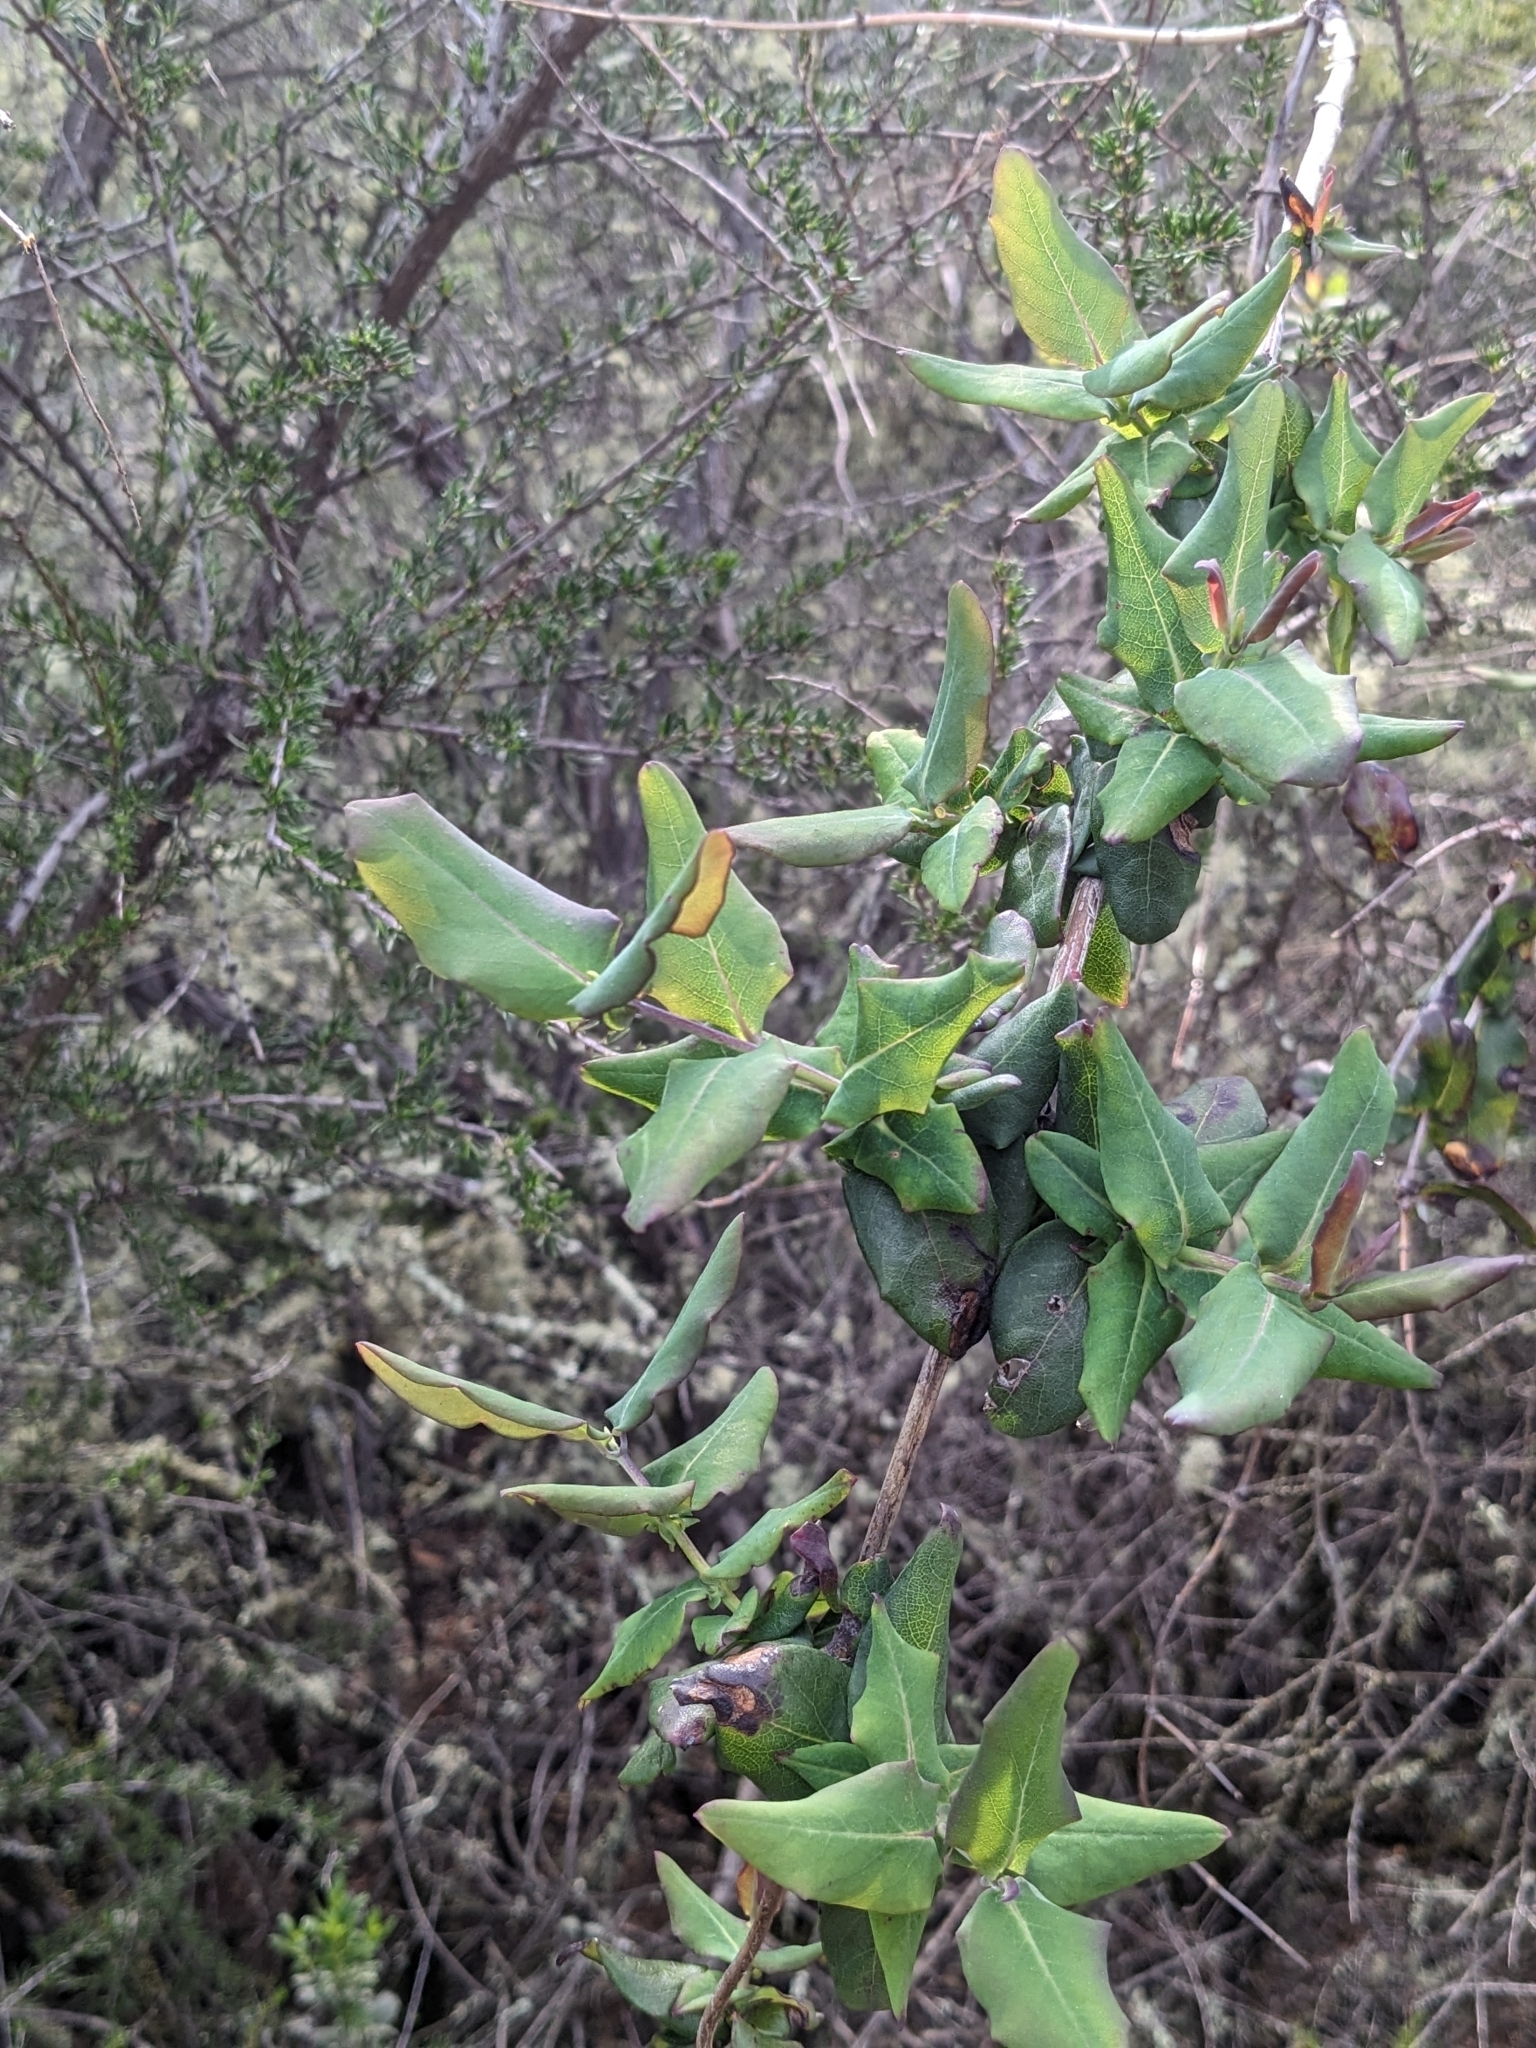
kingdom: Plantae
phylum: Tracheophyta
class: Magnoliopsida
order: Dipsacales
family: Caprifoliaceae
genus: Lonicera
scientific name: Lonicera hispidula
